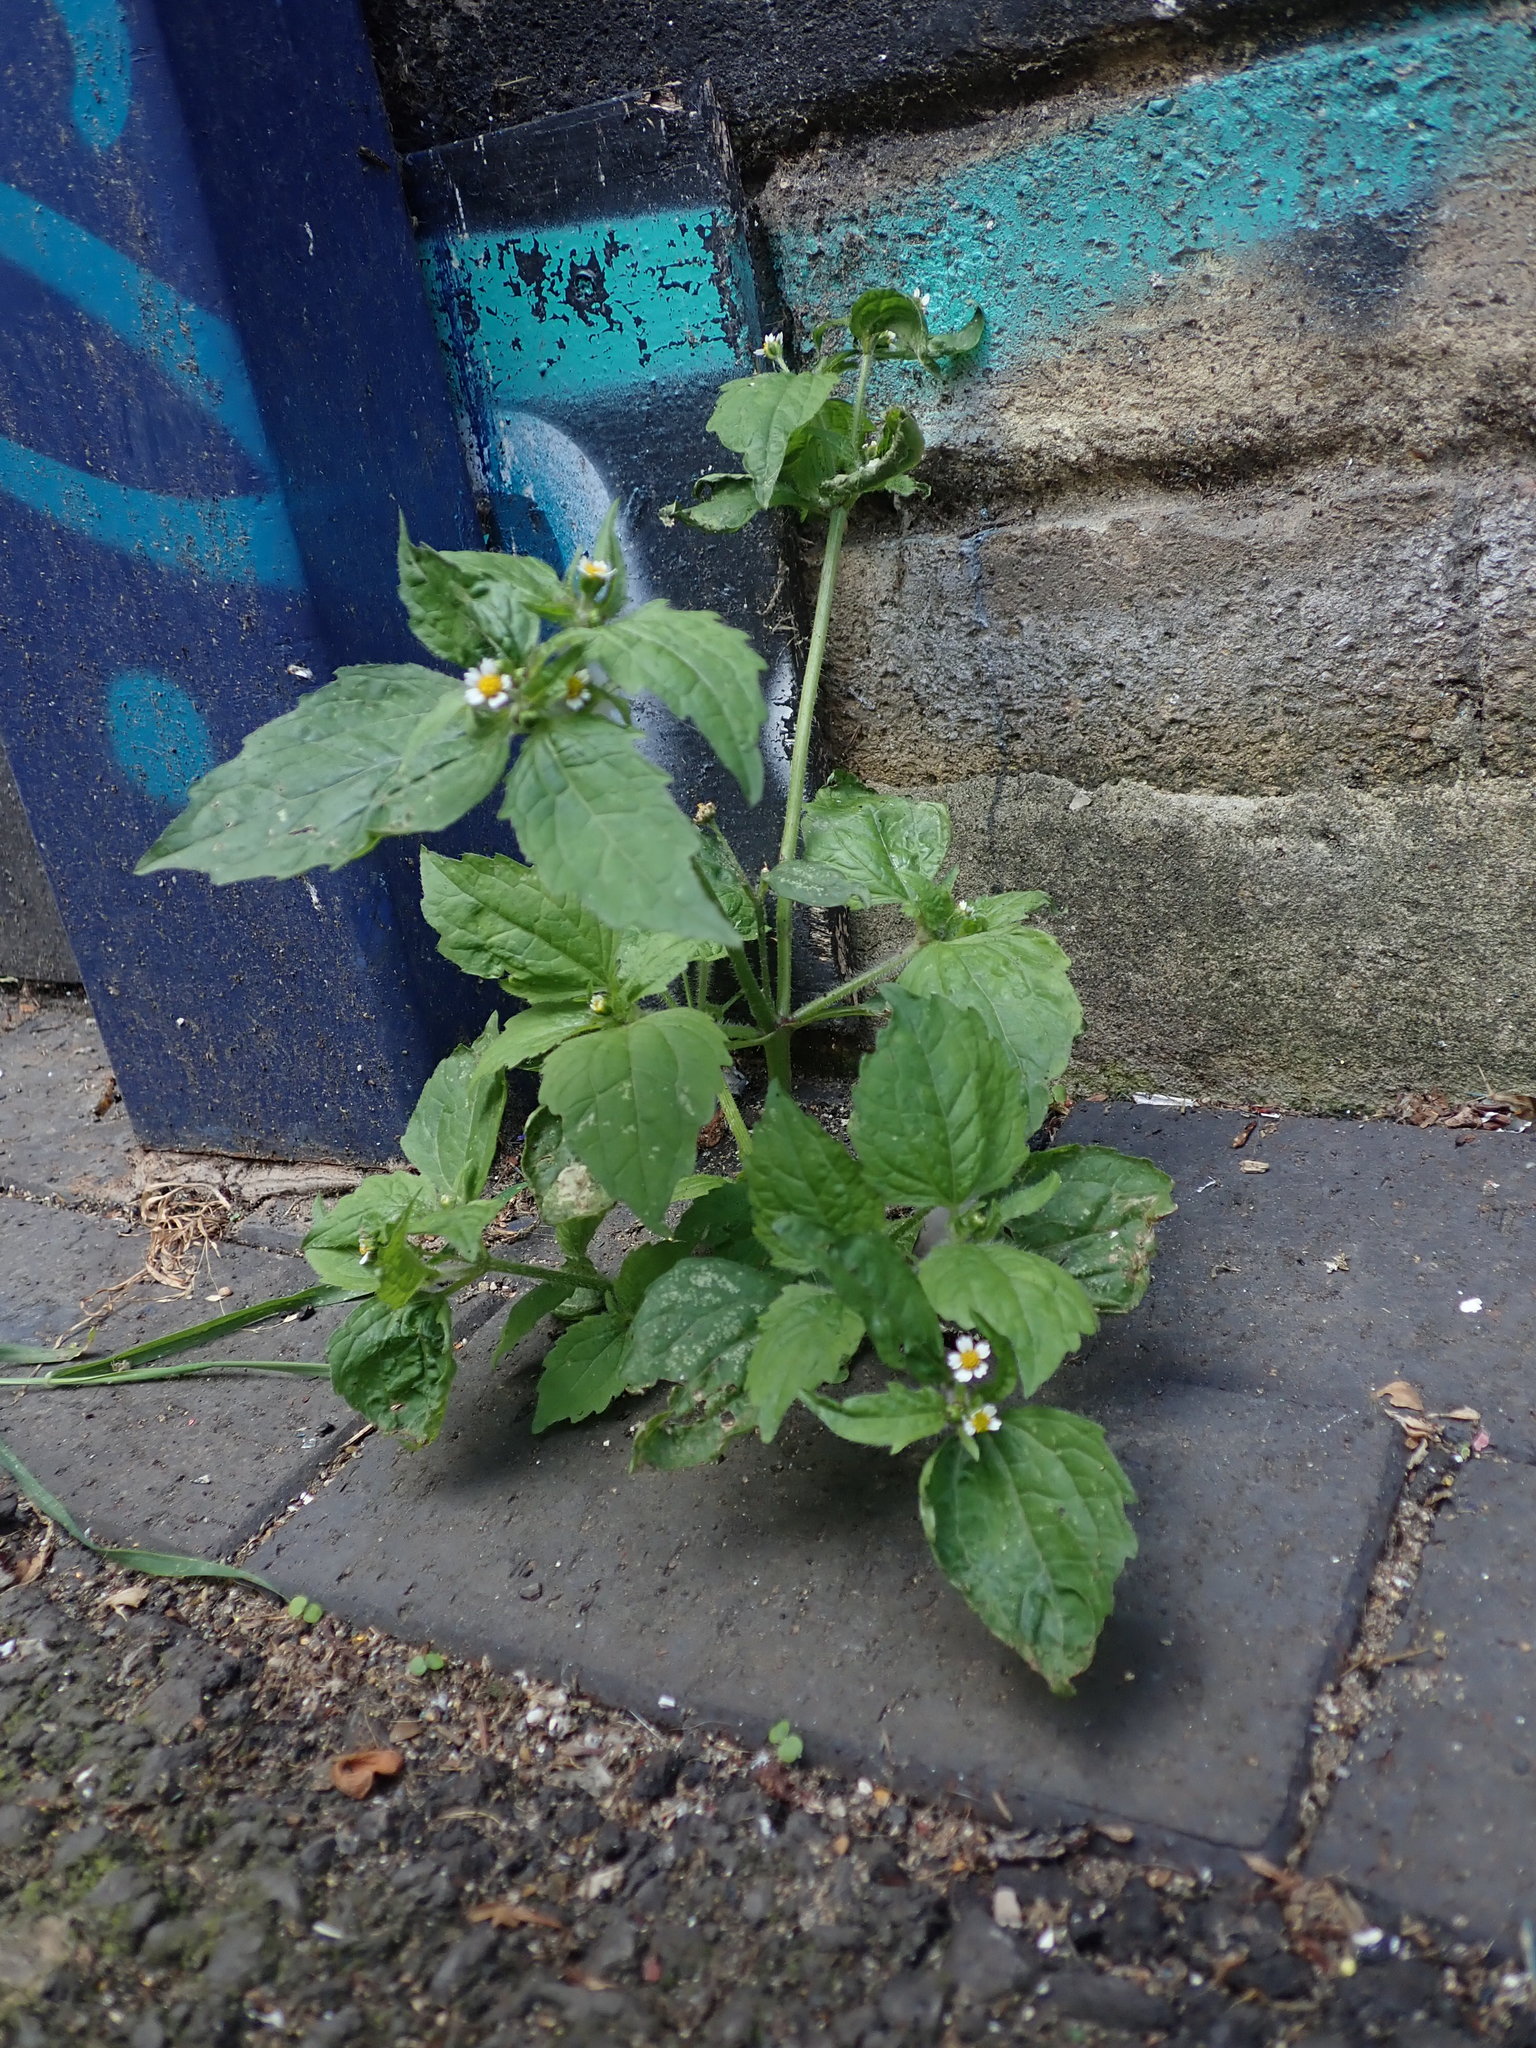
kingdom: Plantae
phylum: Tracheophyta
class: Magnoliopsida
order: Asterales
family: Asteraceae
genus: Galinsoga
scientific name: Galinsoga quadriradiata
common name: Shaggy soldier
